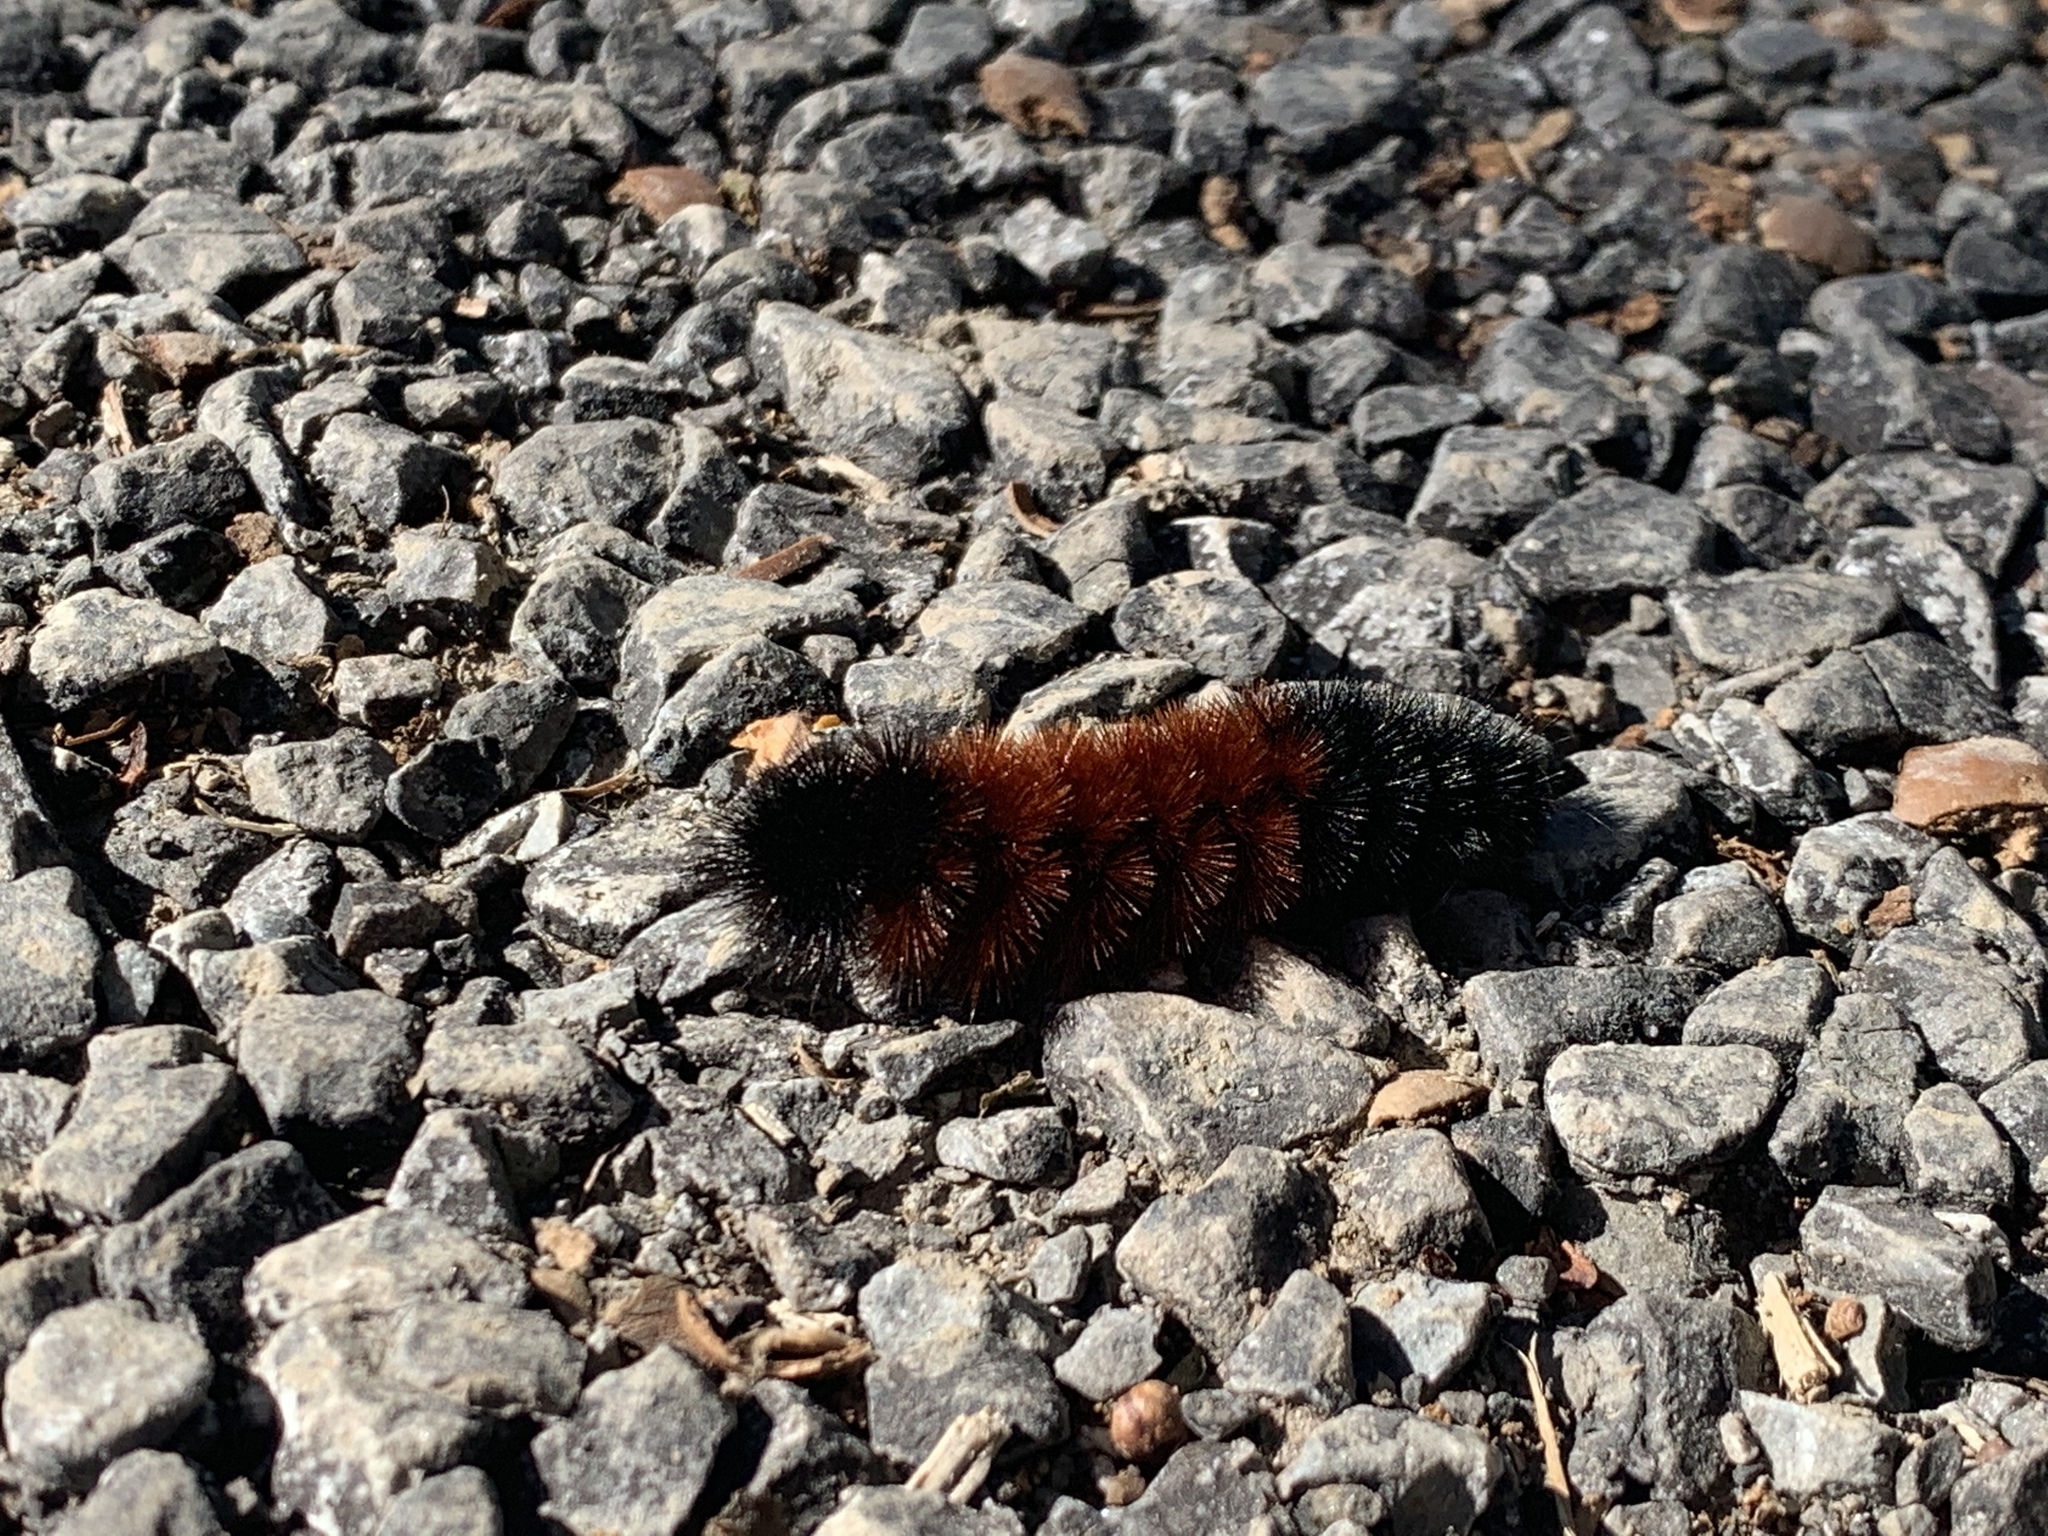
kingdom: Animalia
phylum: Arthropoda
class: Insecta
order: Lepidoptera
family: Erebidae
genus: Pyrrharctia
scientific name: Pyrrharctia isabella
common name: Isabella tiger moth
